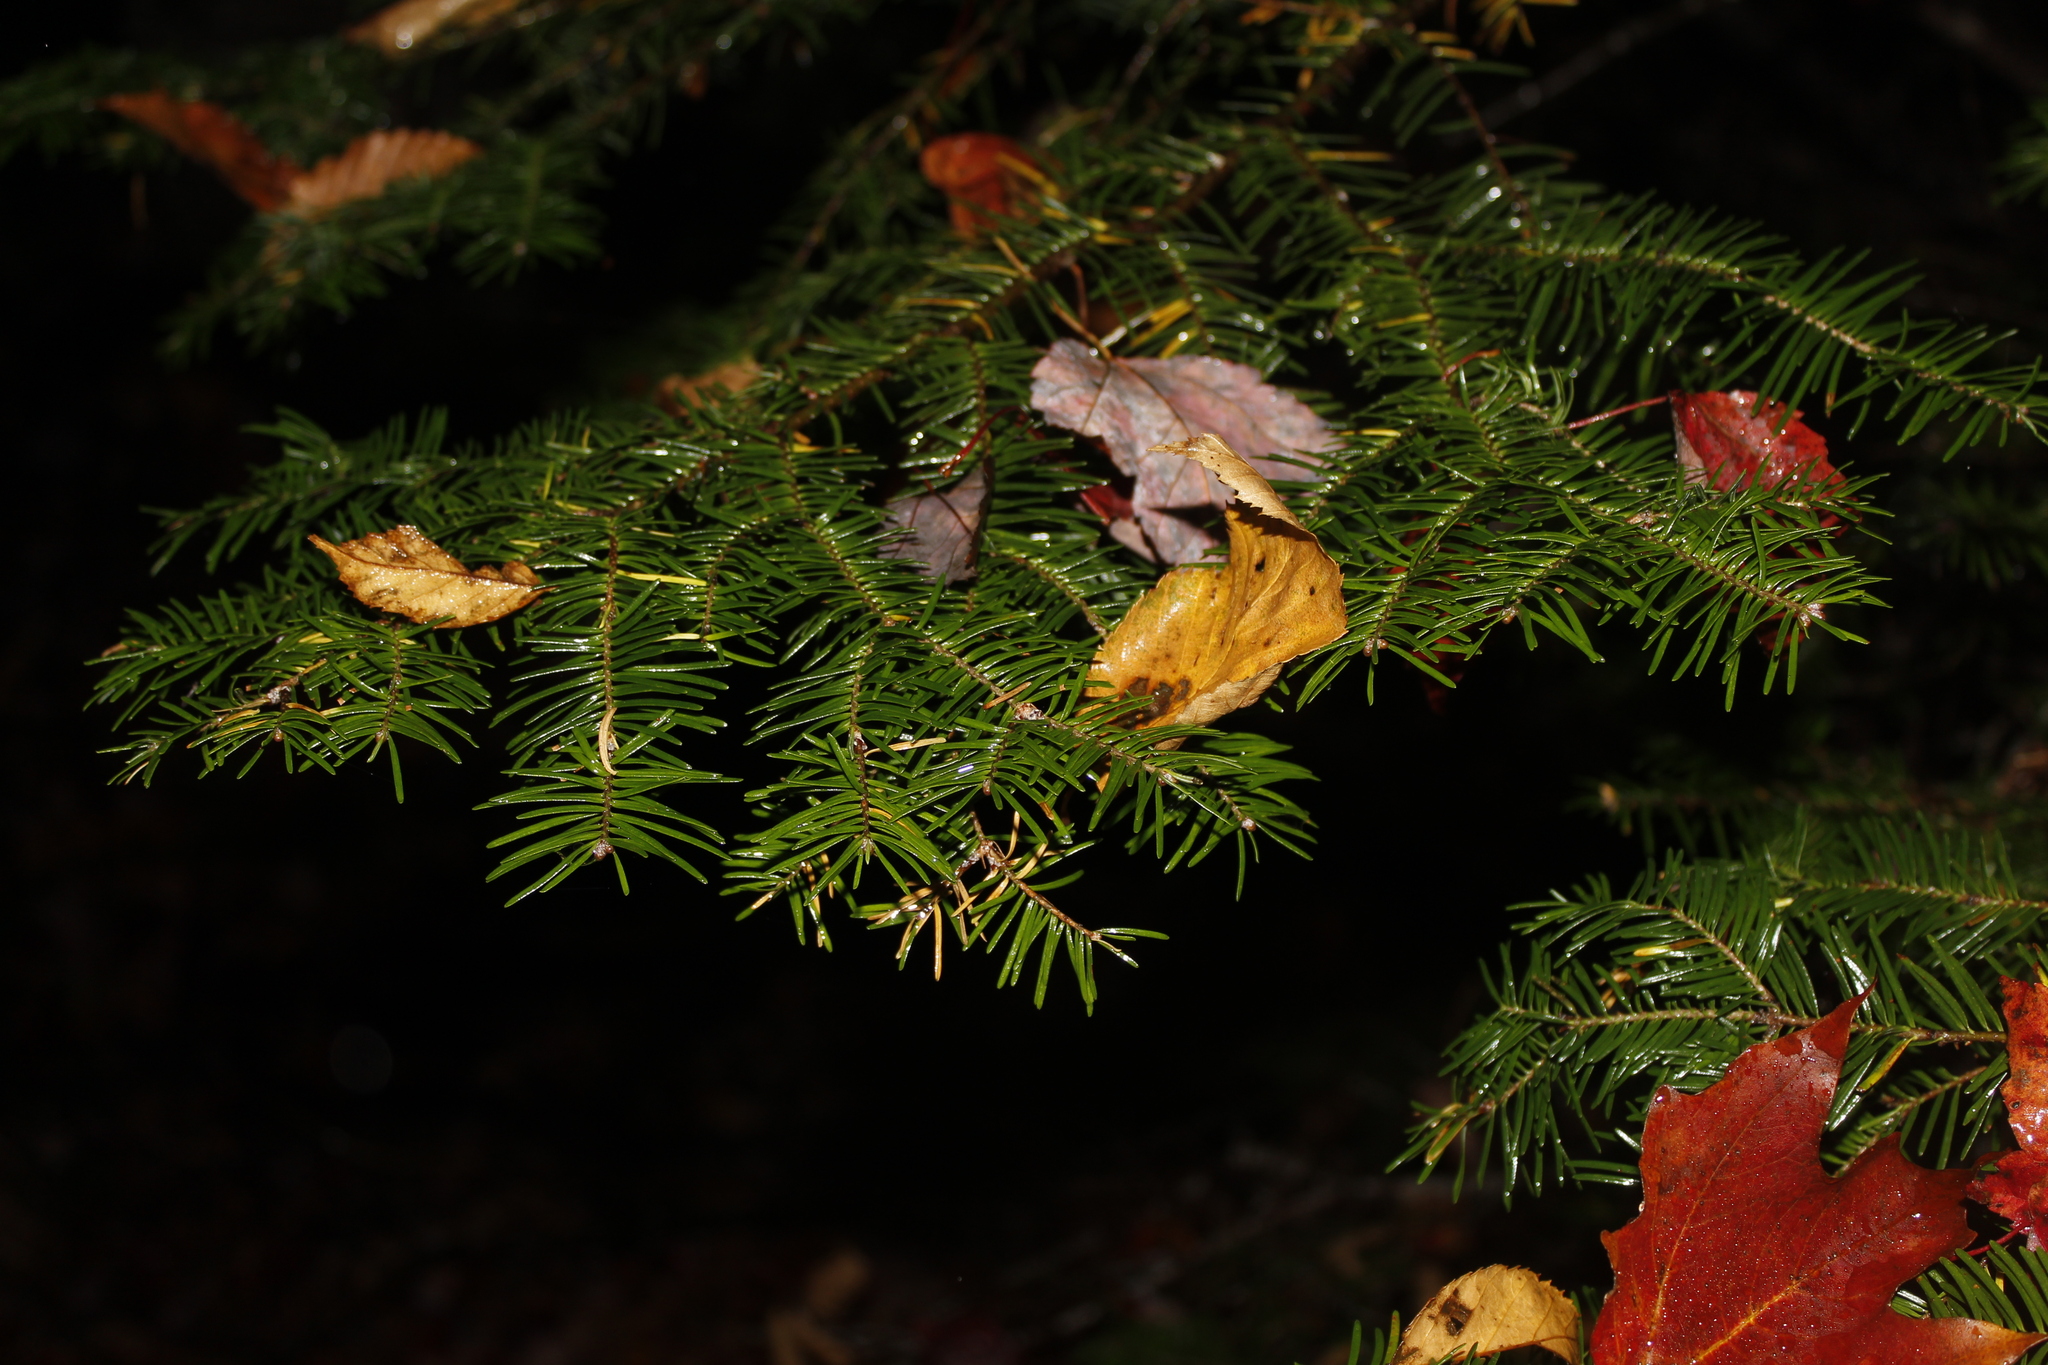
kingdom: Plantae
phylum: Tracheophyta
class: Pinopsida
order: Pinales
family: Pinaceae
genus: Abies
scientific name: Abies balsamea
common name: Balsam fir
